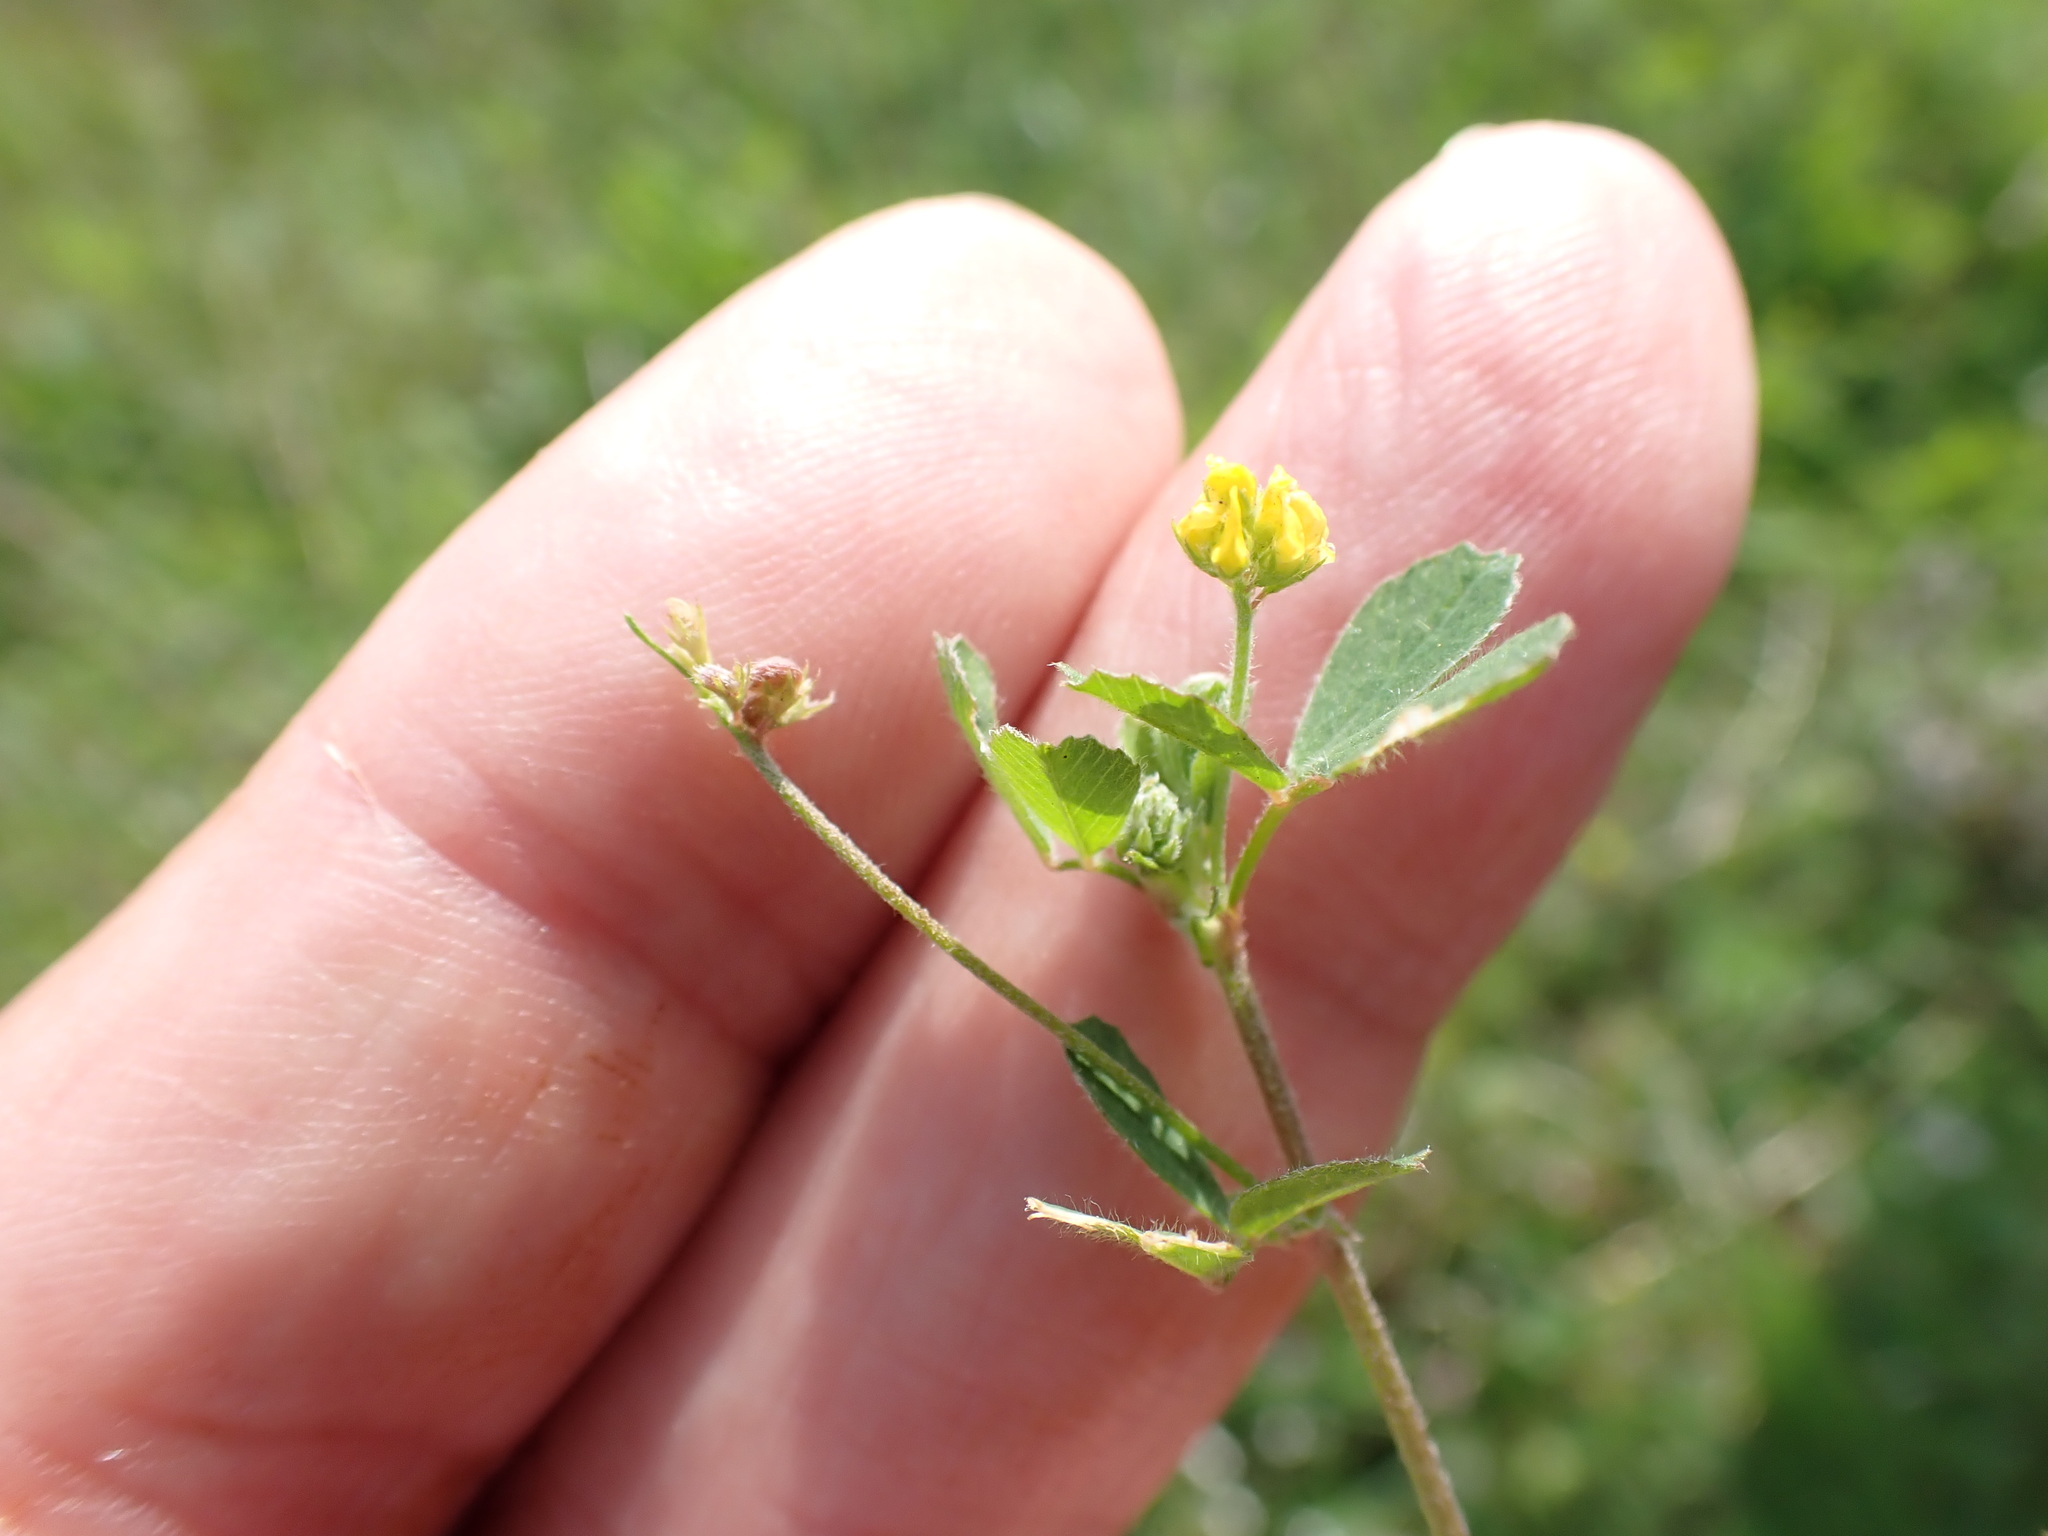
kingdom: Plantae
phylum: Tracheophyta
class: Magnoliopsida
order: Fabales
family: Fabaceae
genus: Medicago
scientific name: Medicago lupulina
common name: Black medick
